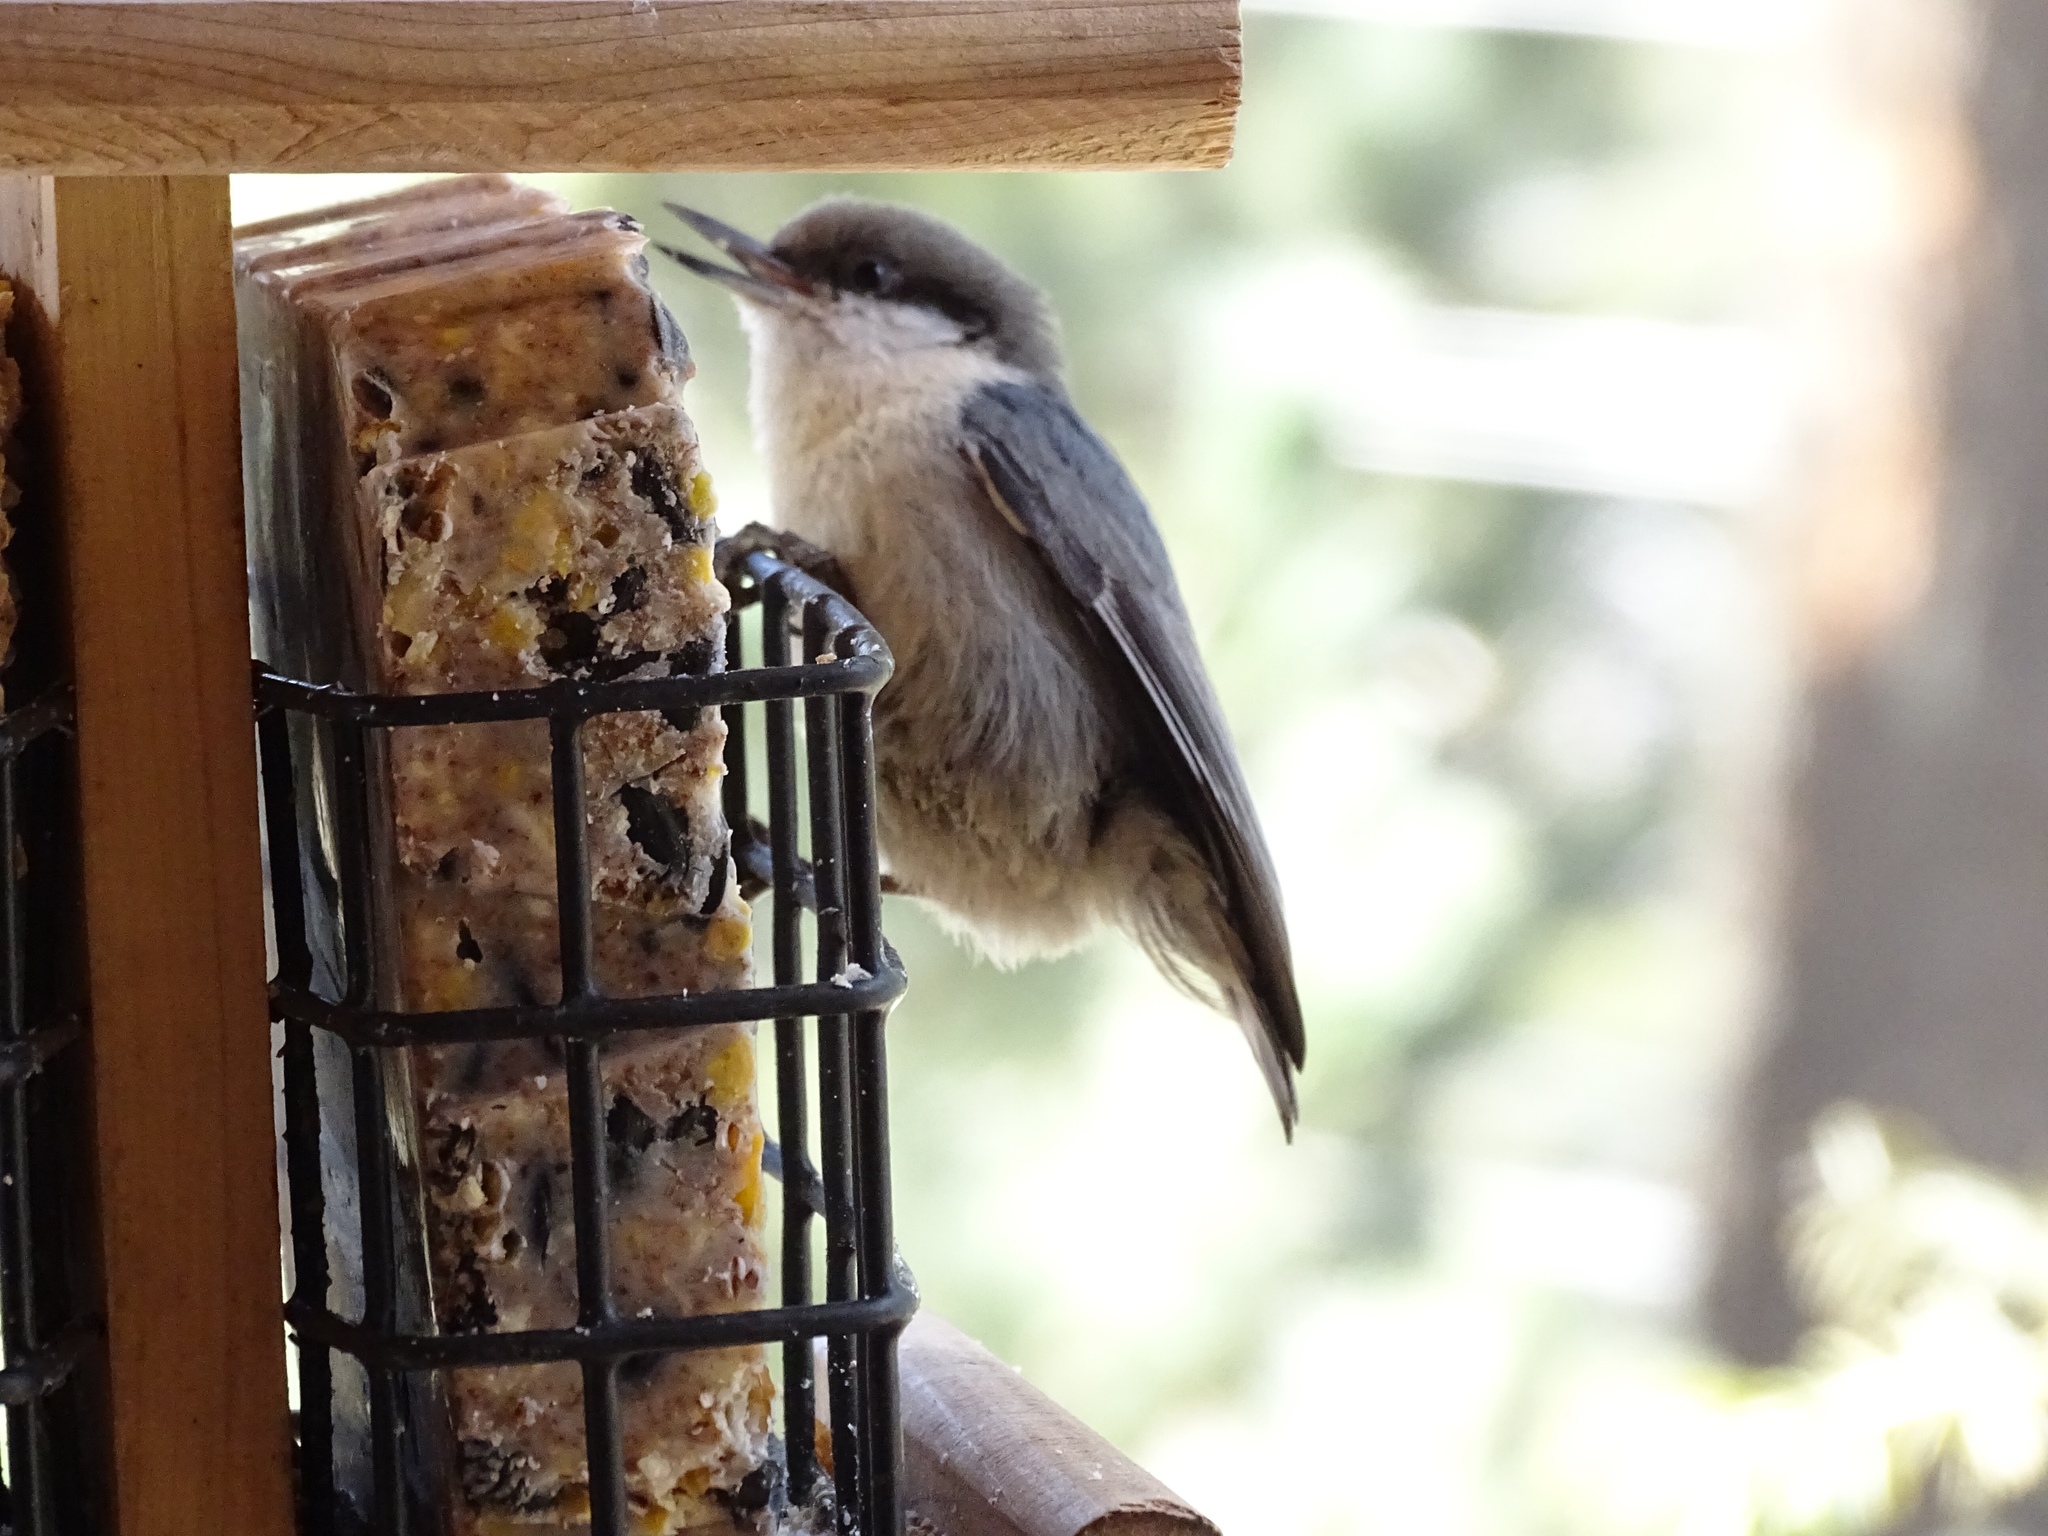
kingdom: Animalia
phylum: Chordata
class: Aves
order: Passeriformes
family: Sittidae
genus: Sitta
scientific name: Sitta pygmaea
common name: Pygmy nuthatch
